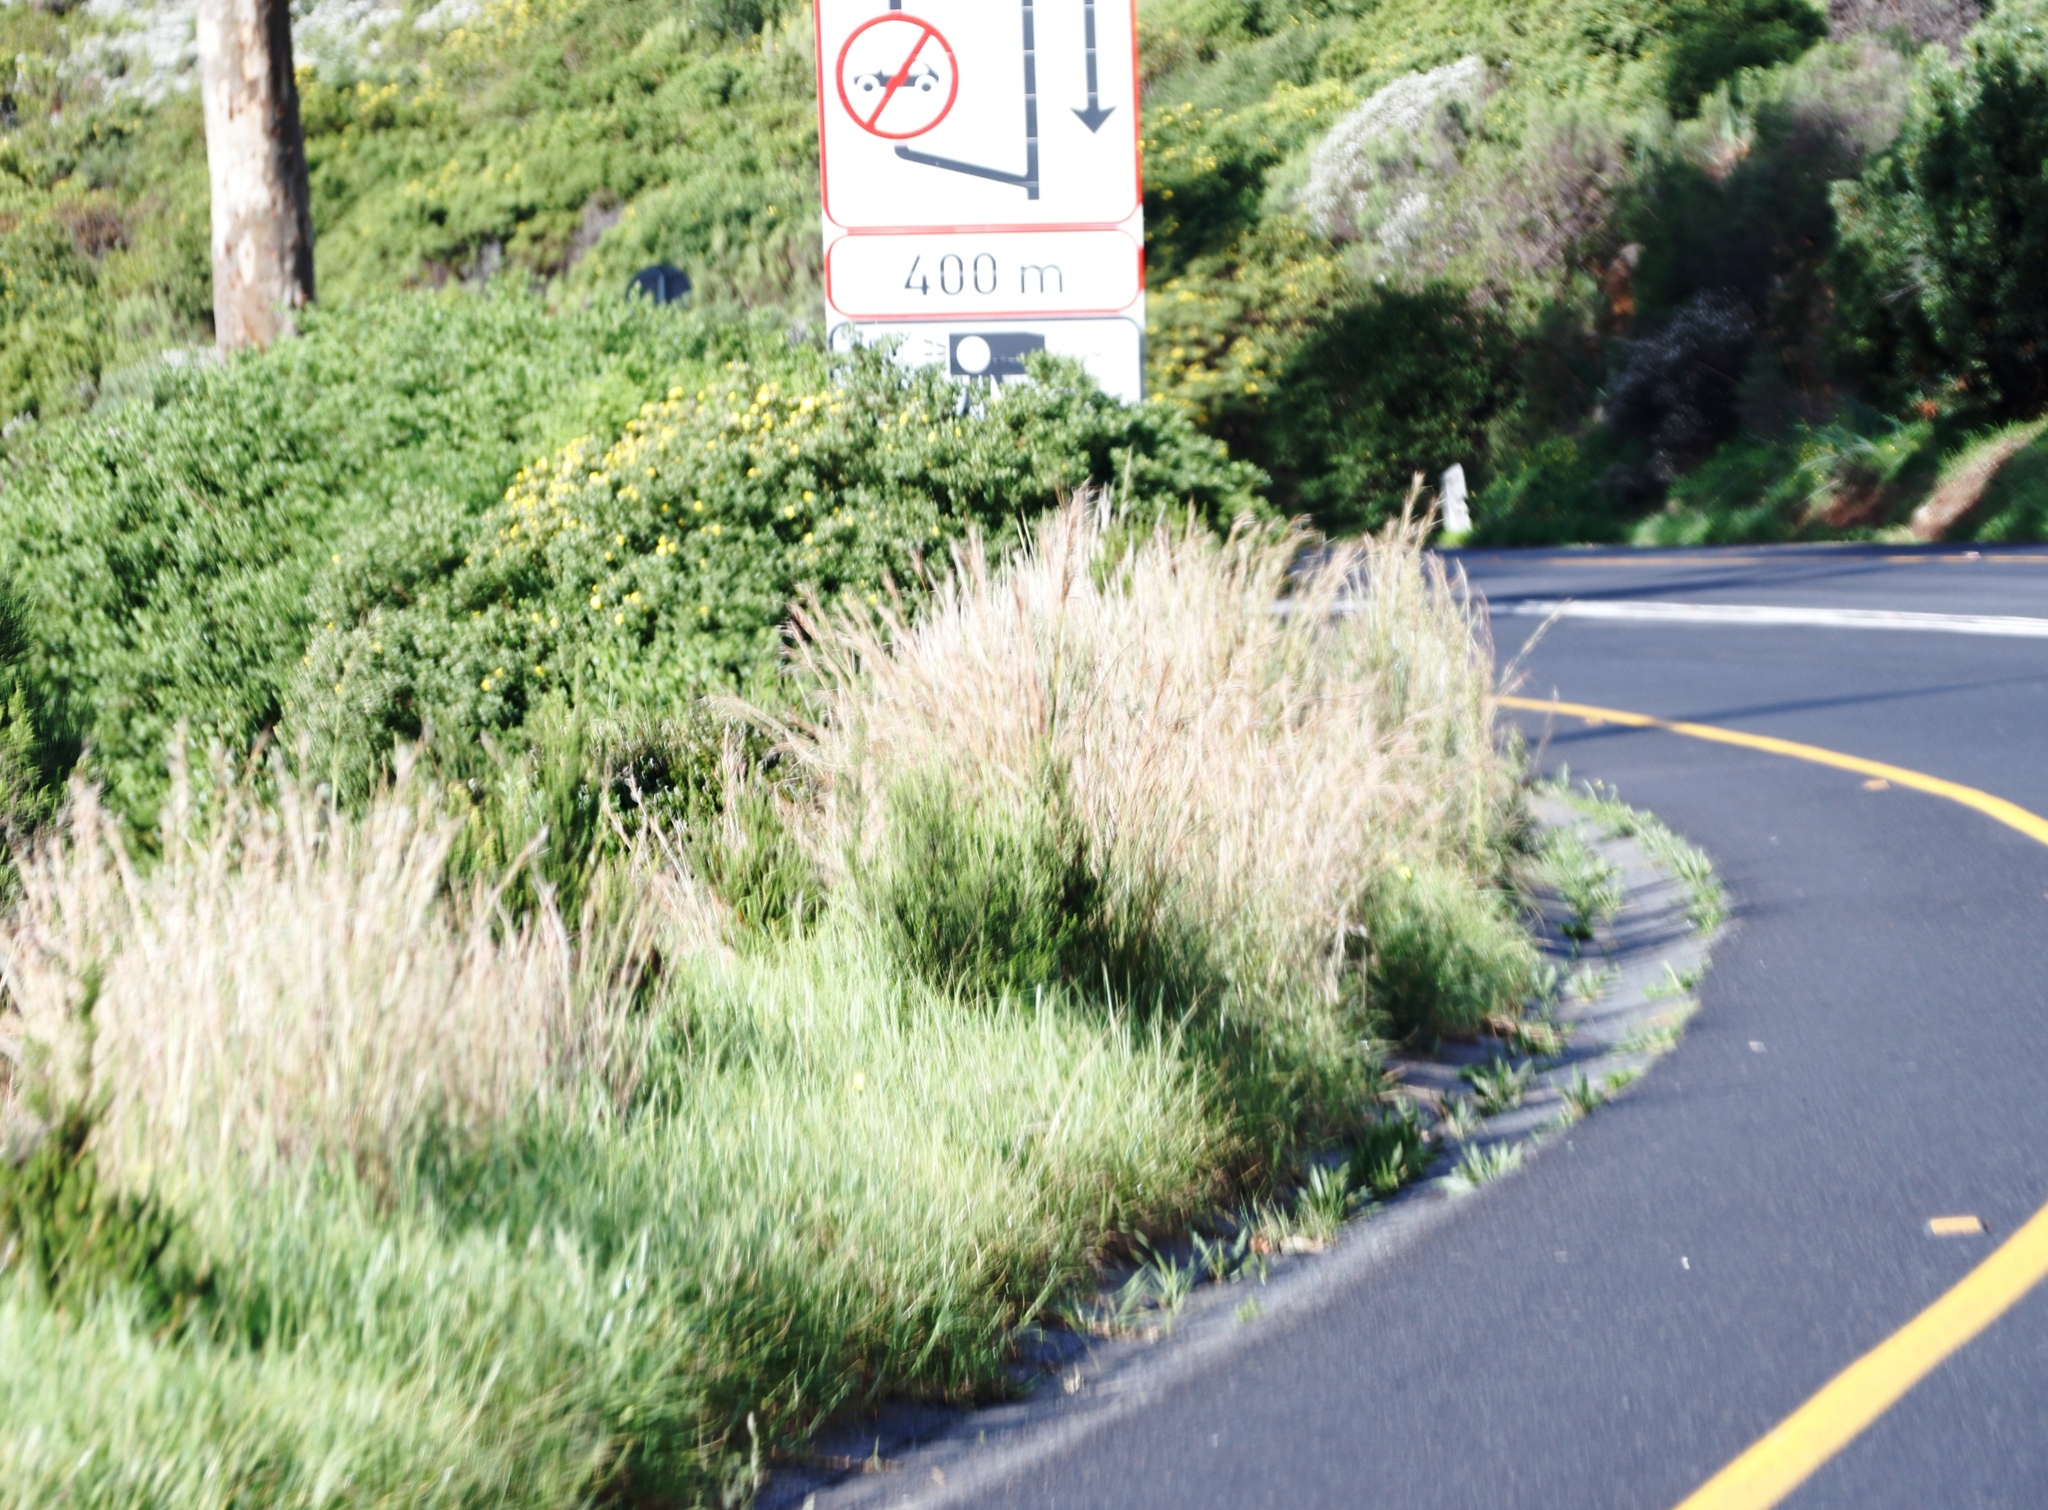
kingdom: Plantae
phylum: Tracheophyta
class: Liliopsida
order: Poales
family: Poaceae
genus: Hyparrhenia
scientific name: Hyparrhenia hirta
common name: Thatching grass
